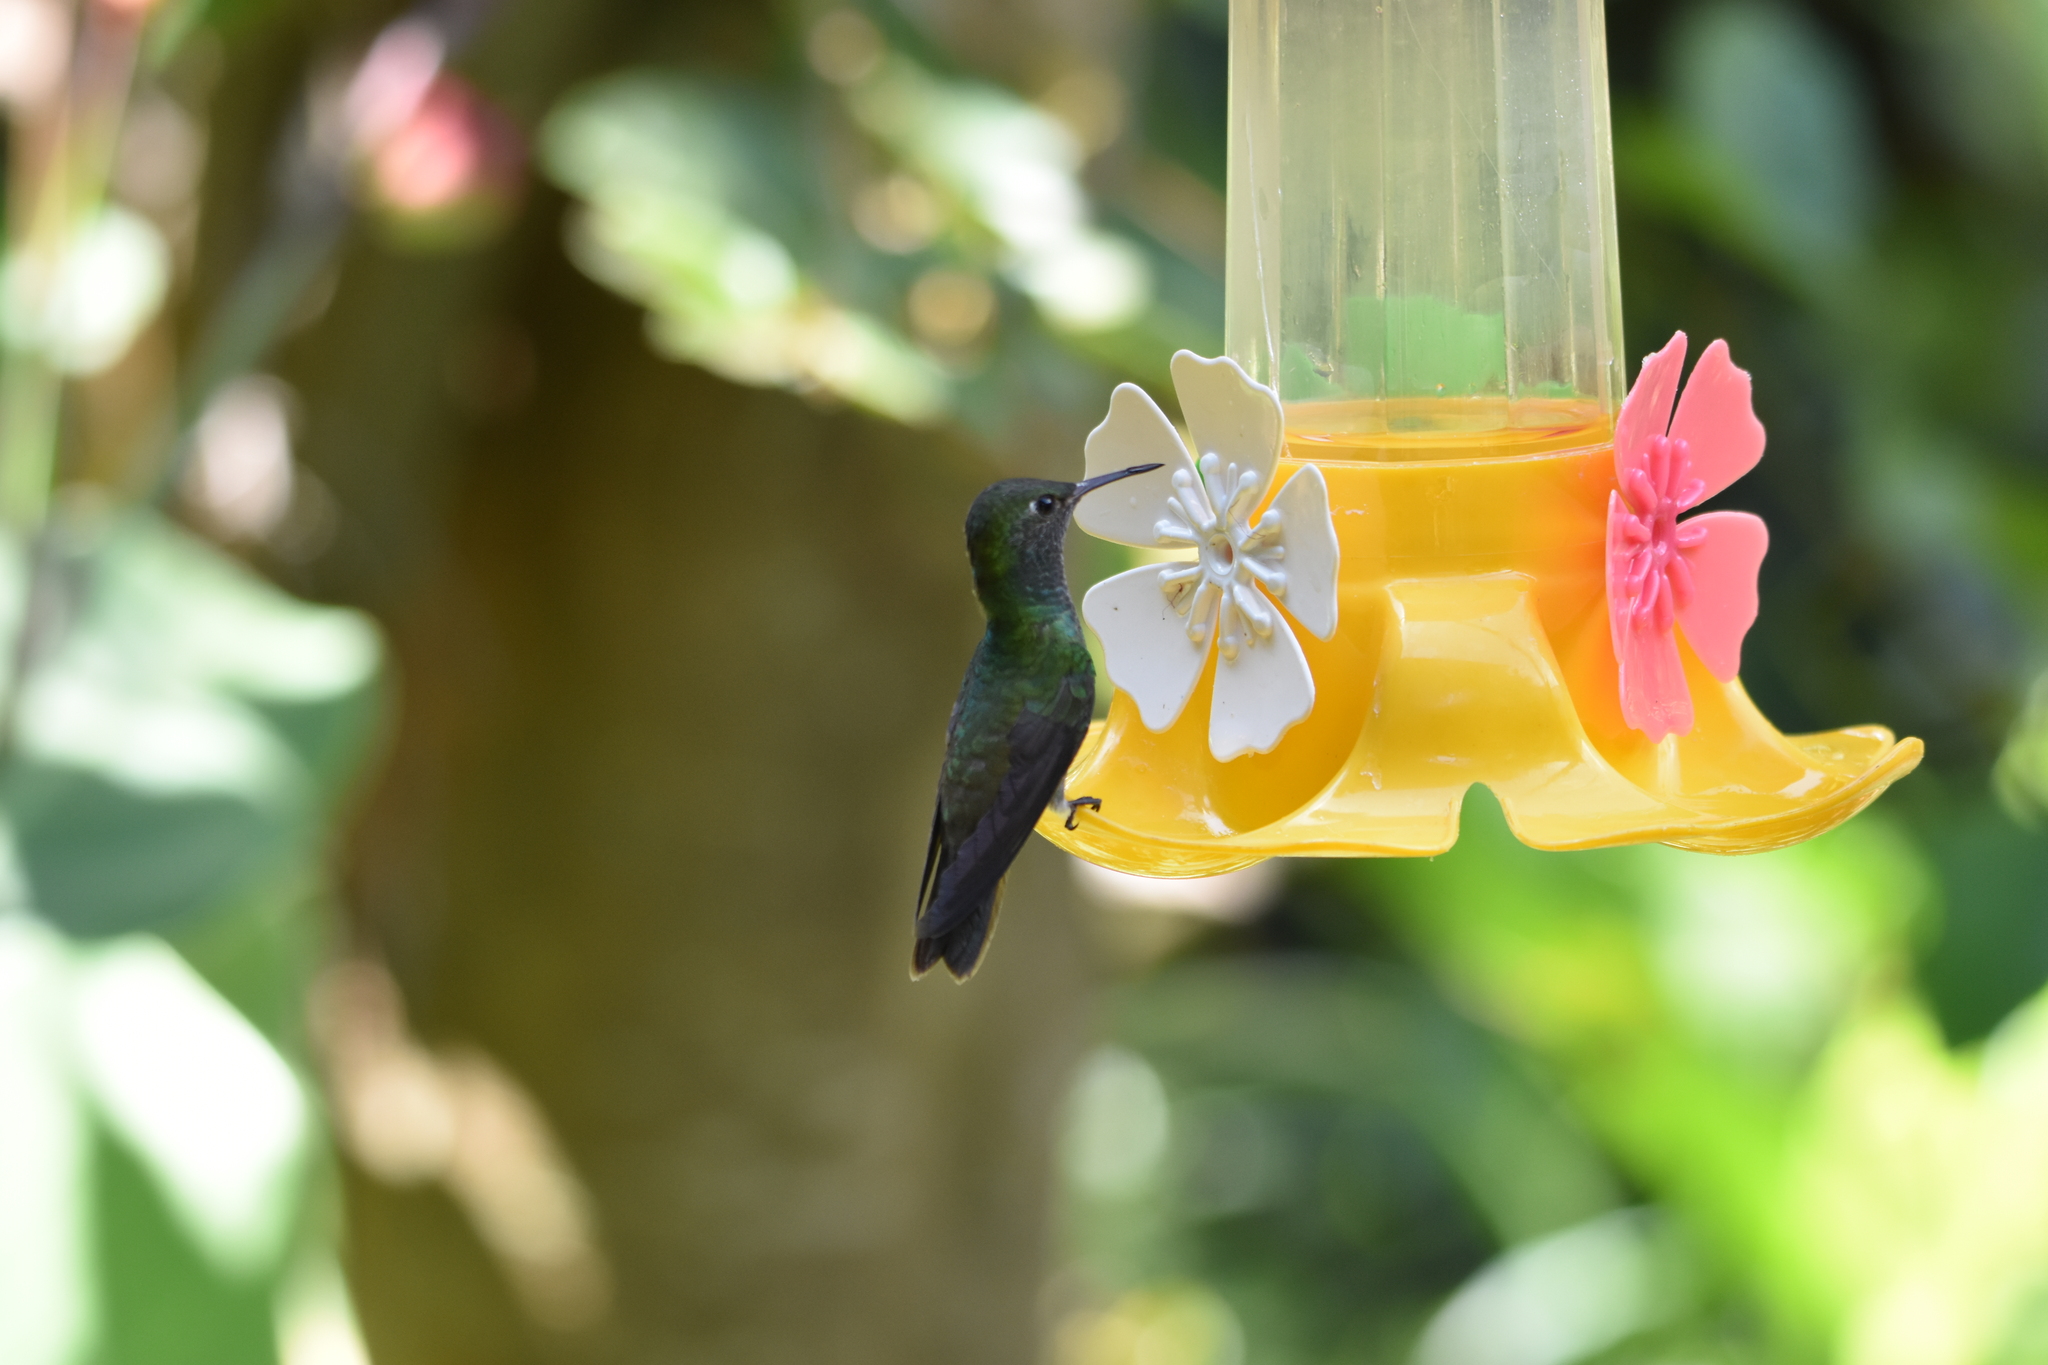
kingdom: Animalia
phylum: Chordata
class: Aves
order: Apodiformes
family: Trochilidae
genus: Chrysuronia
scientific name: Chrysuronia versicolor
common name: Versicolored emerald
